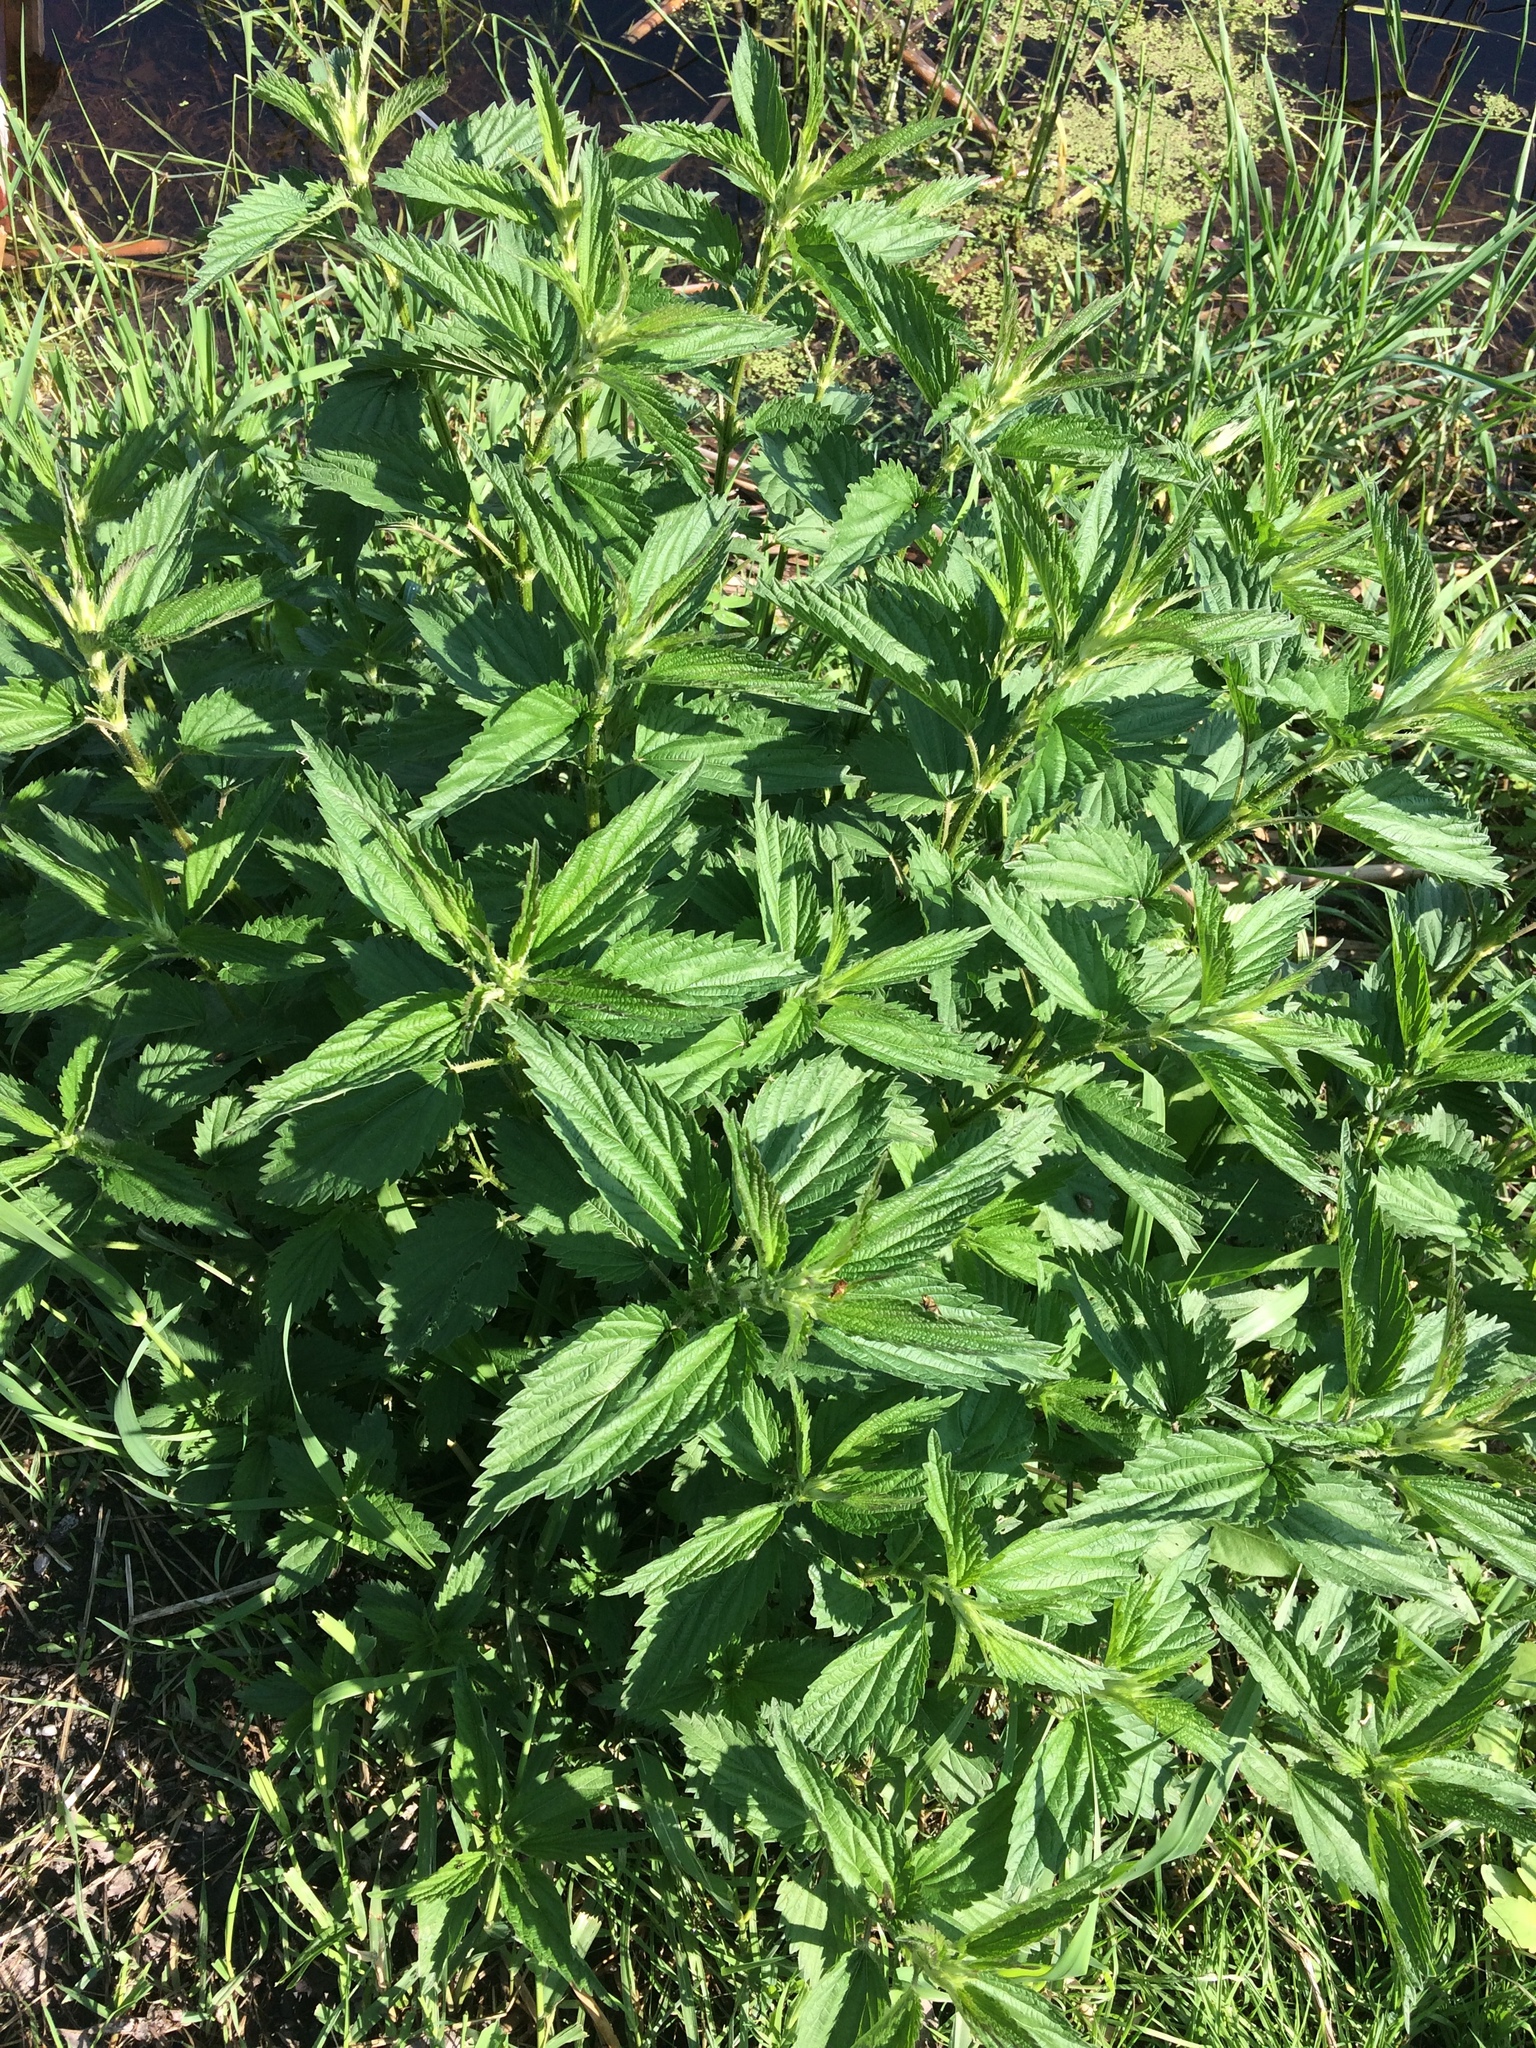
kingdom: Plantae
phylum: Tracheophyta
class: Magnoliopsida
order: Rosales
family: Urticaceae
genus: Urtica
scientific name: Urtica dioica
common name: Common nettle
